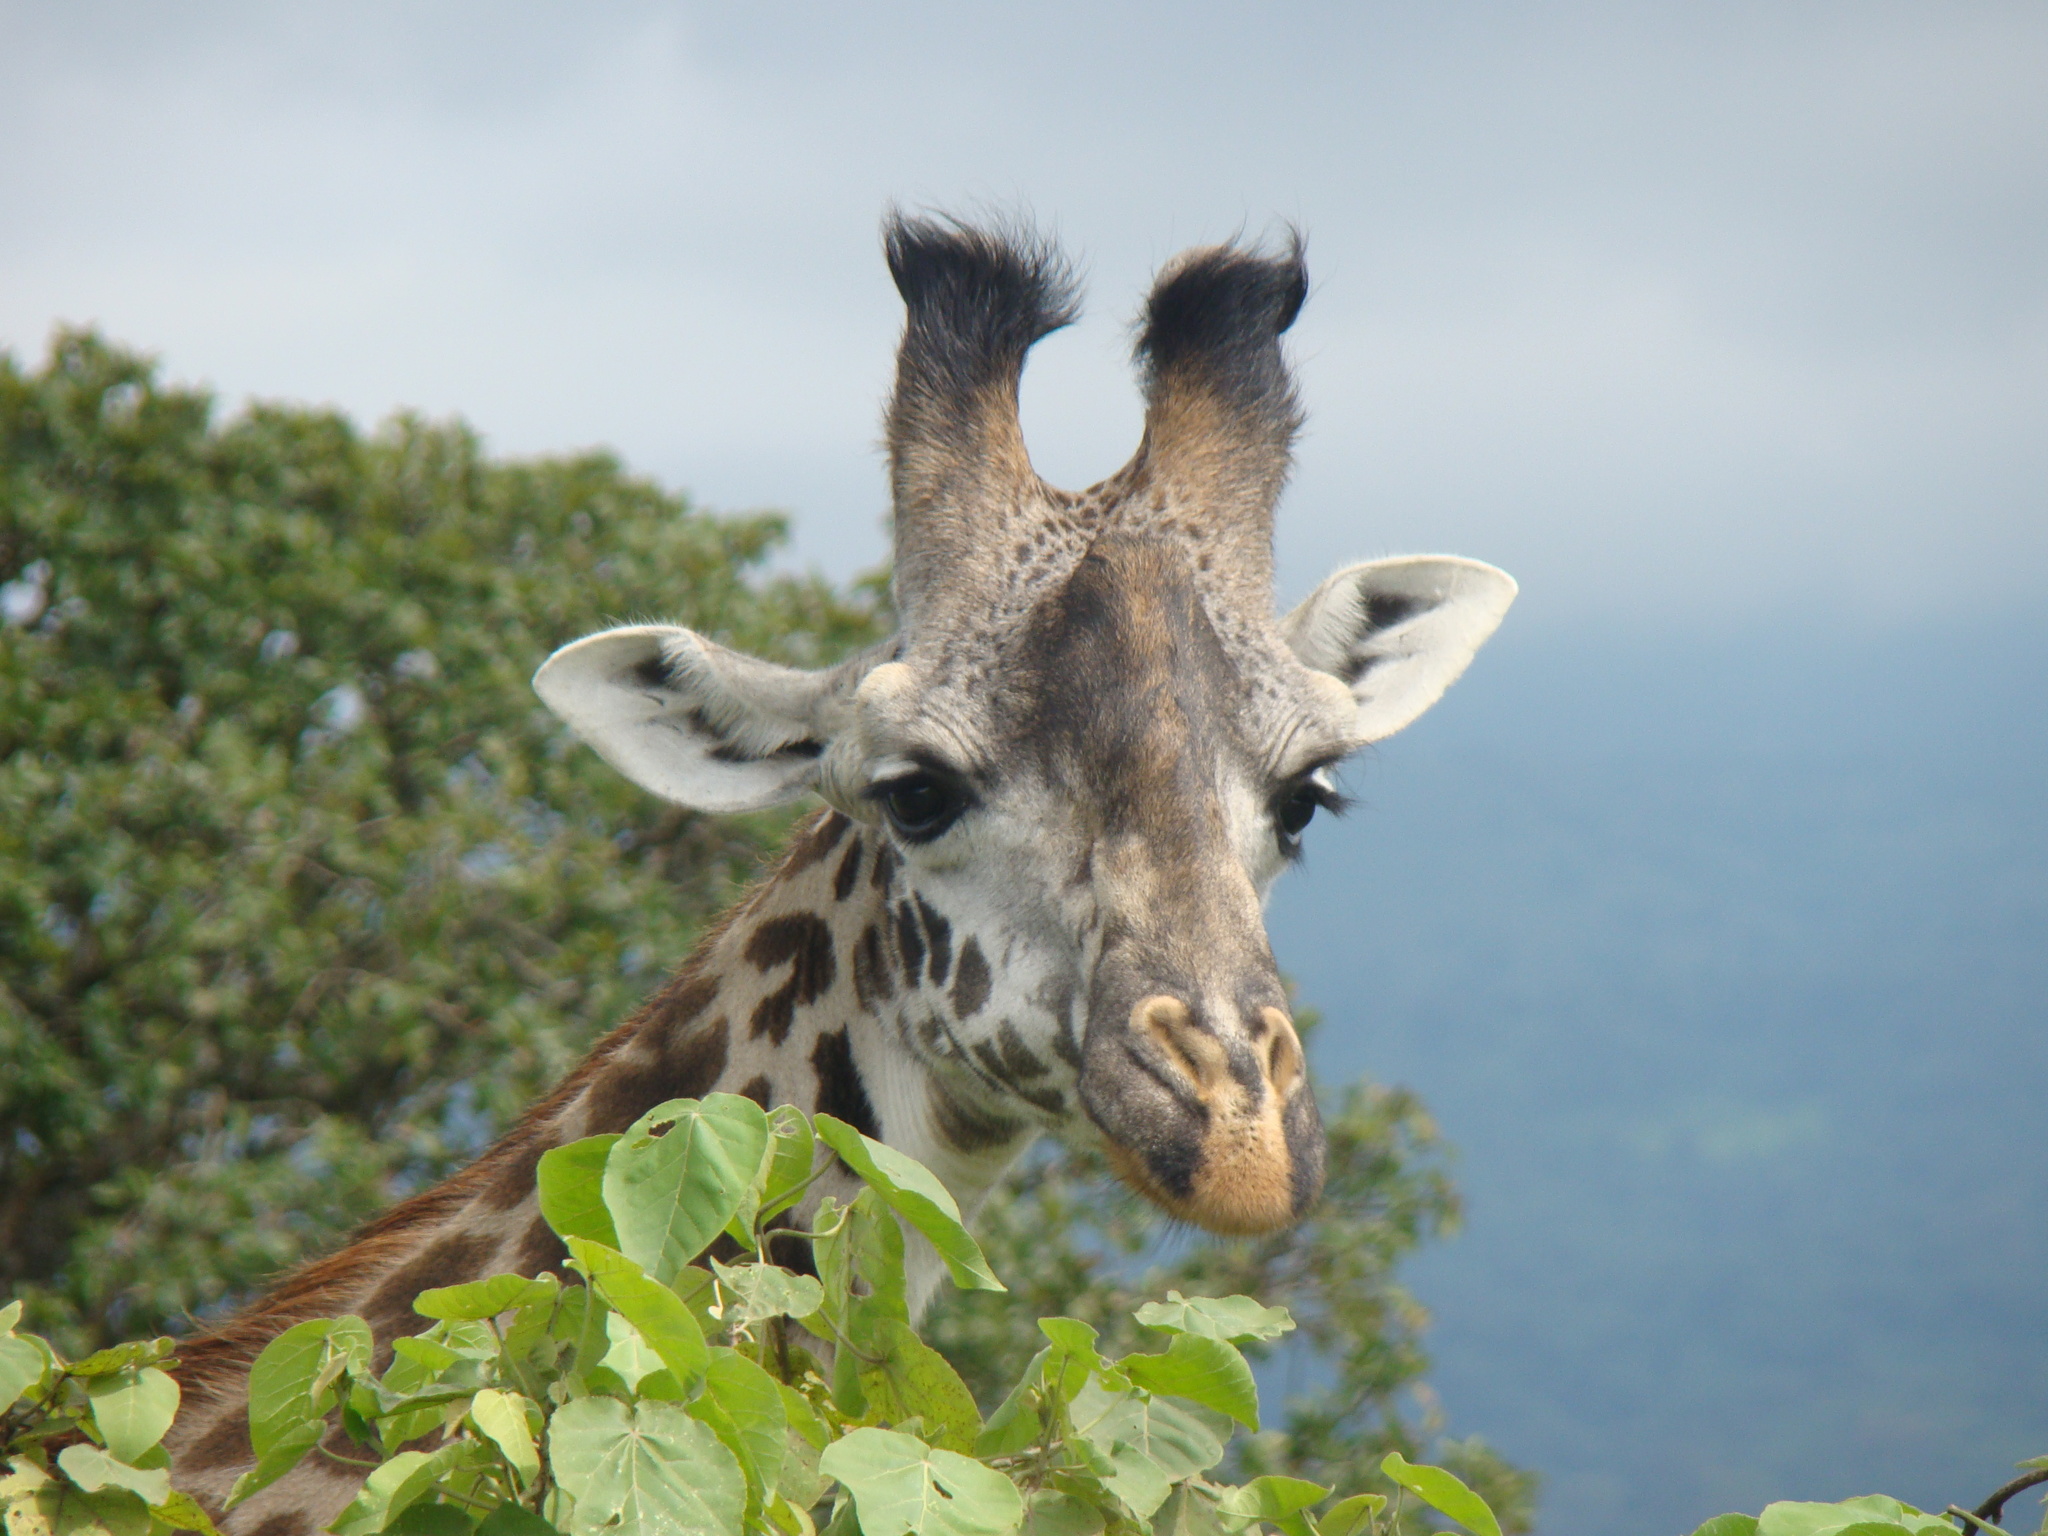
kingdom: Animalia
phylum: Chordata
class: Mammalia
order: Artiodactyla
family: Giraffidae
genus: Giraffa
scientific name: Giraffa tippelskirchi
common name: Masai giraffe
